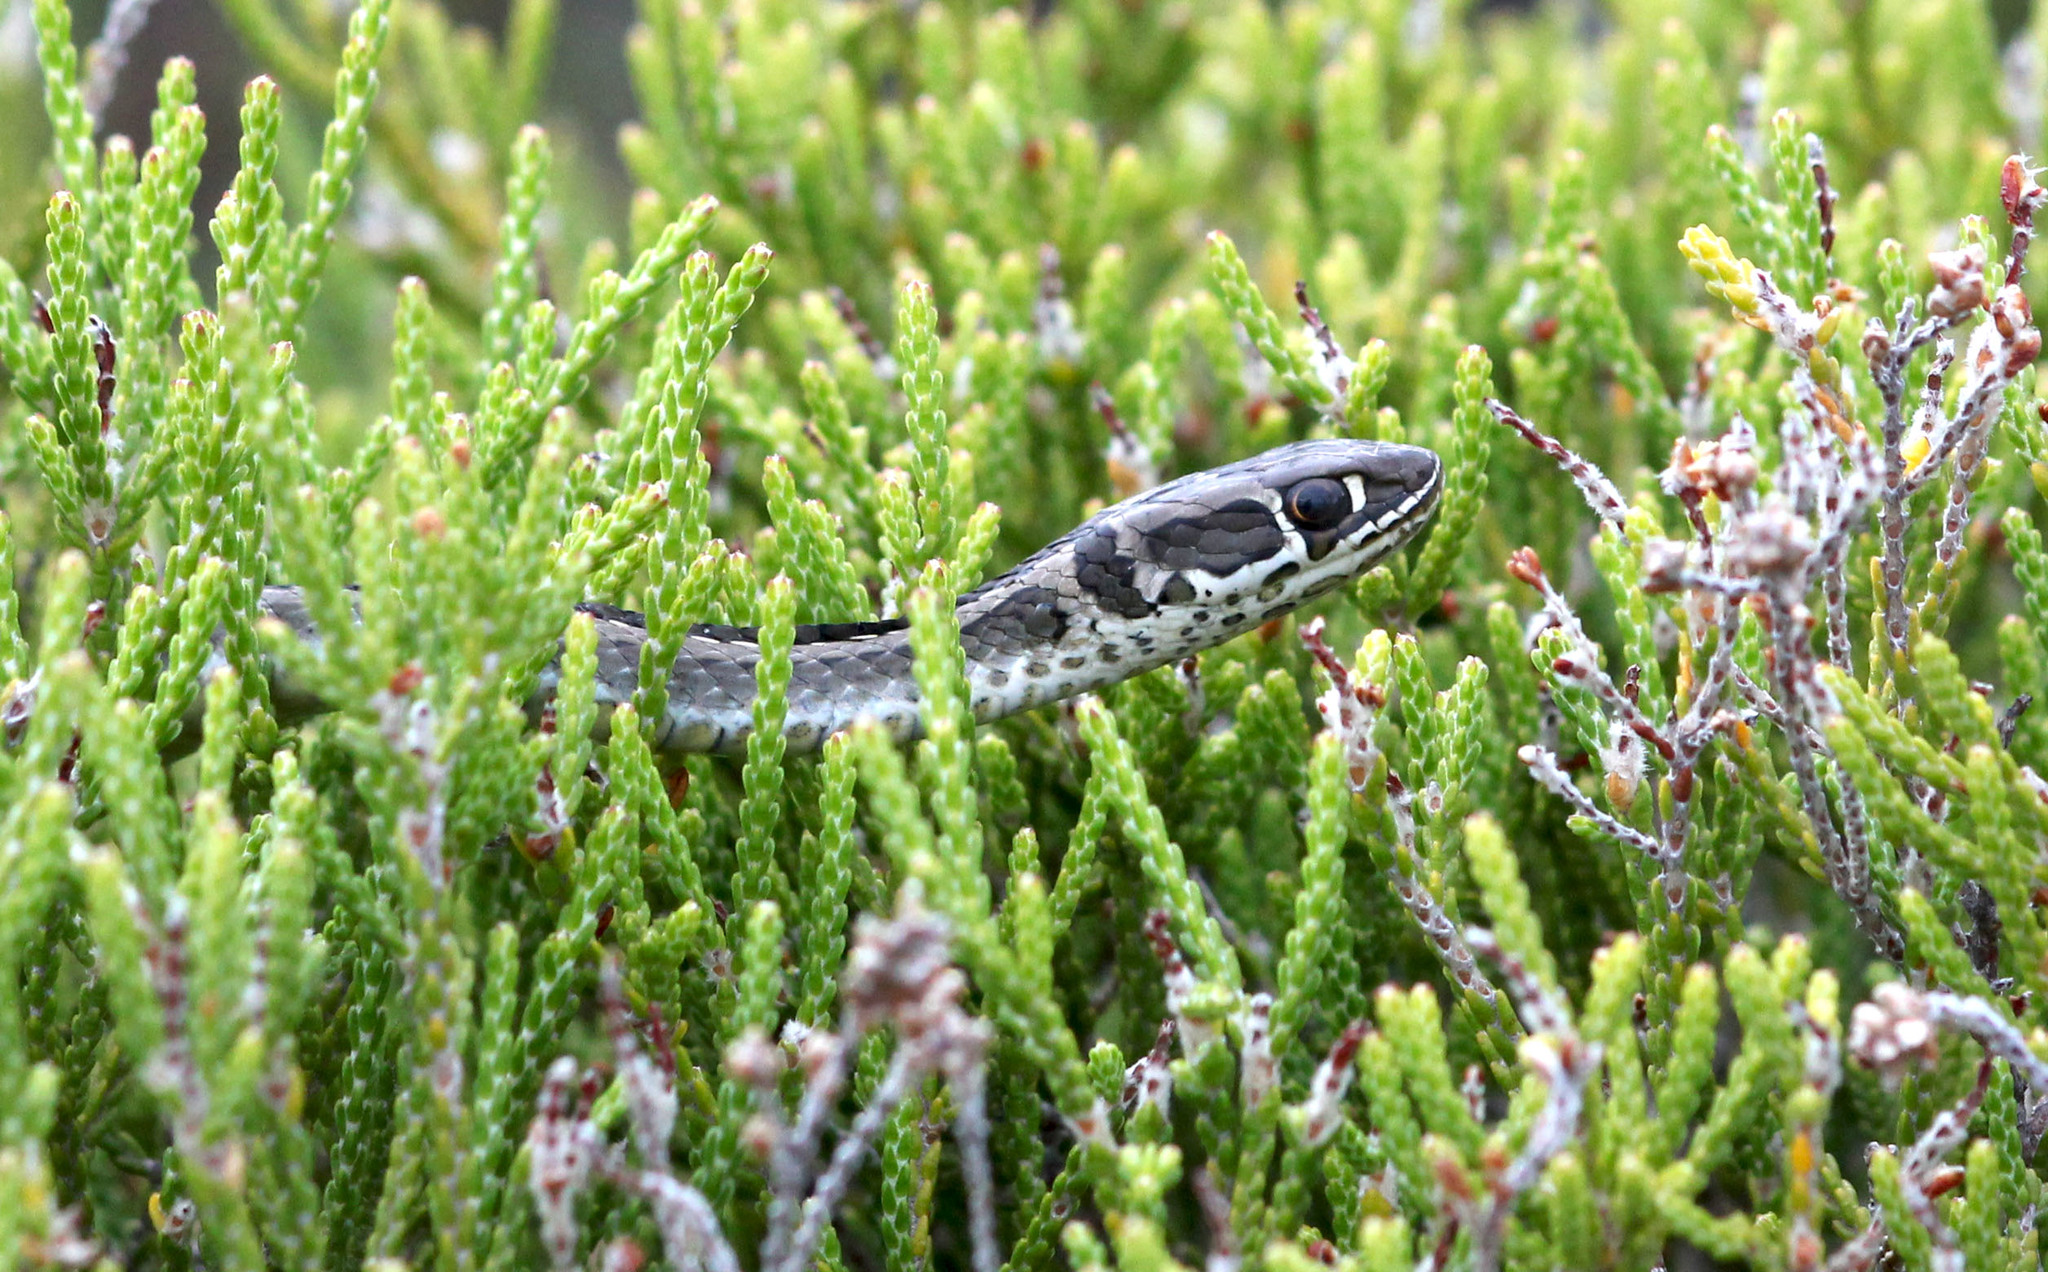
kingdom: Animalia
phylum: Chordata
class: Squamata
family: Psammophiidae
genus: Psammophis
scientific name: Psammophis crucifer
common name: Cross-marked grass snake
